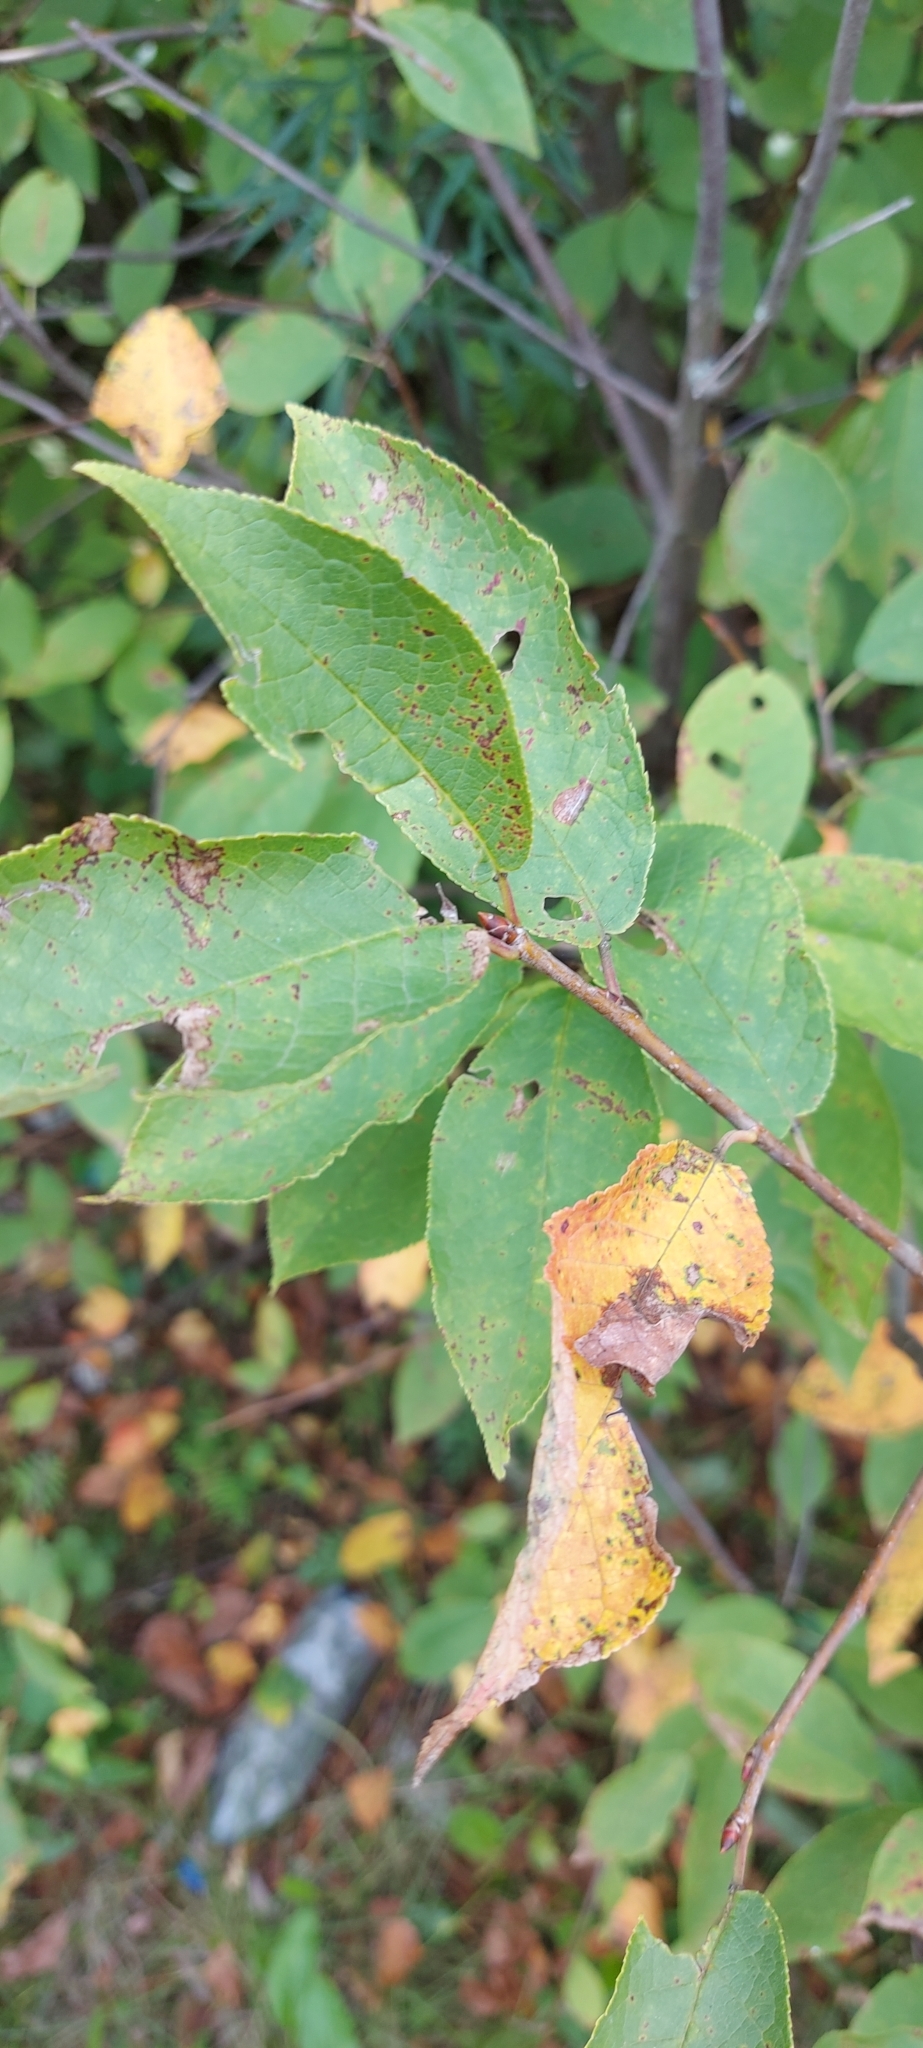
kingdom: Plantae
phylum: Tracheophyta
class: Magnoliopsida
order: Rosales
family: Rosaceae
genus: Prunus
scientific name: Prunus padus
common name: Bird cherry
